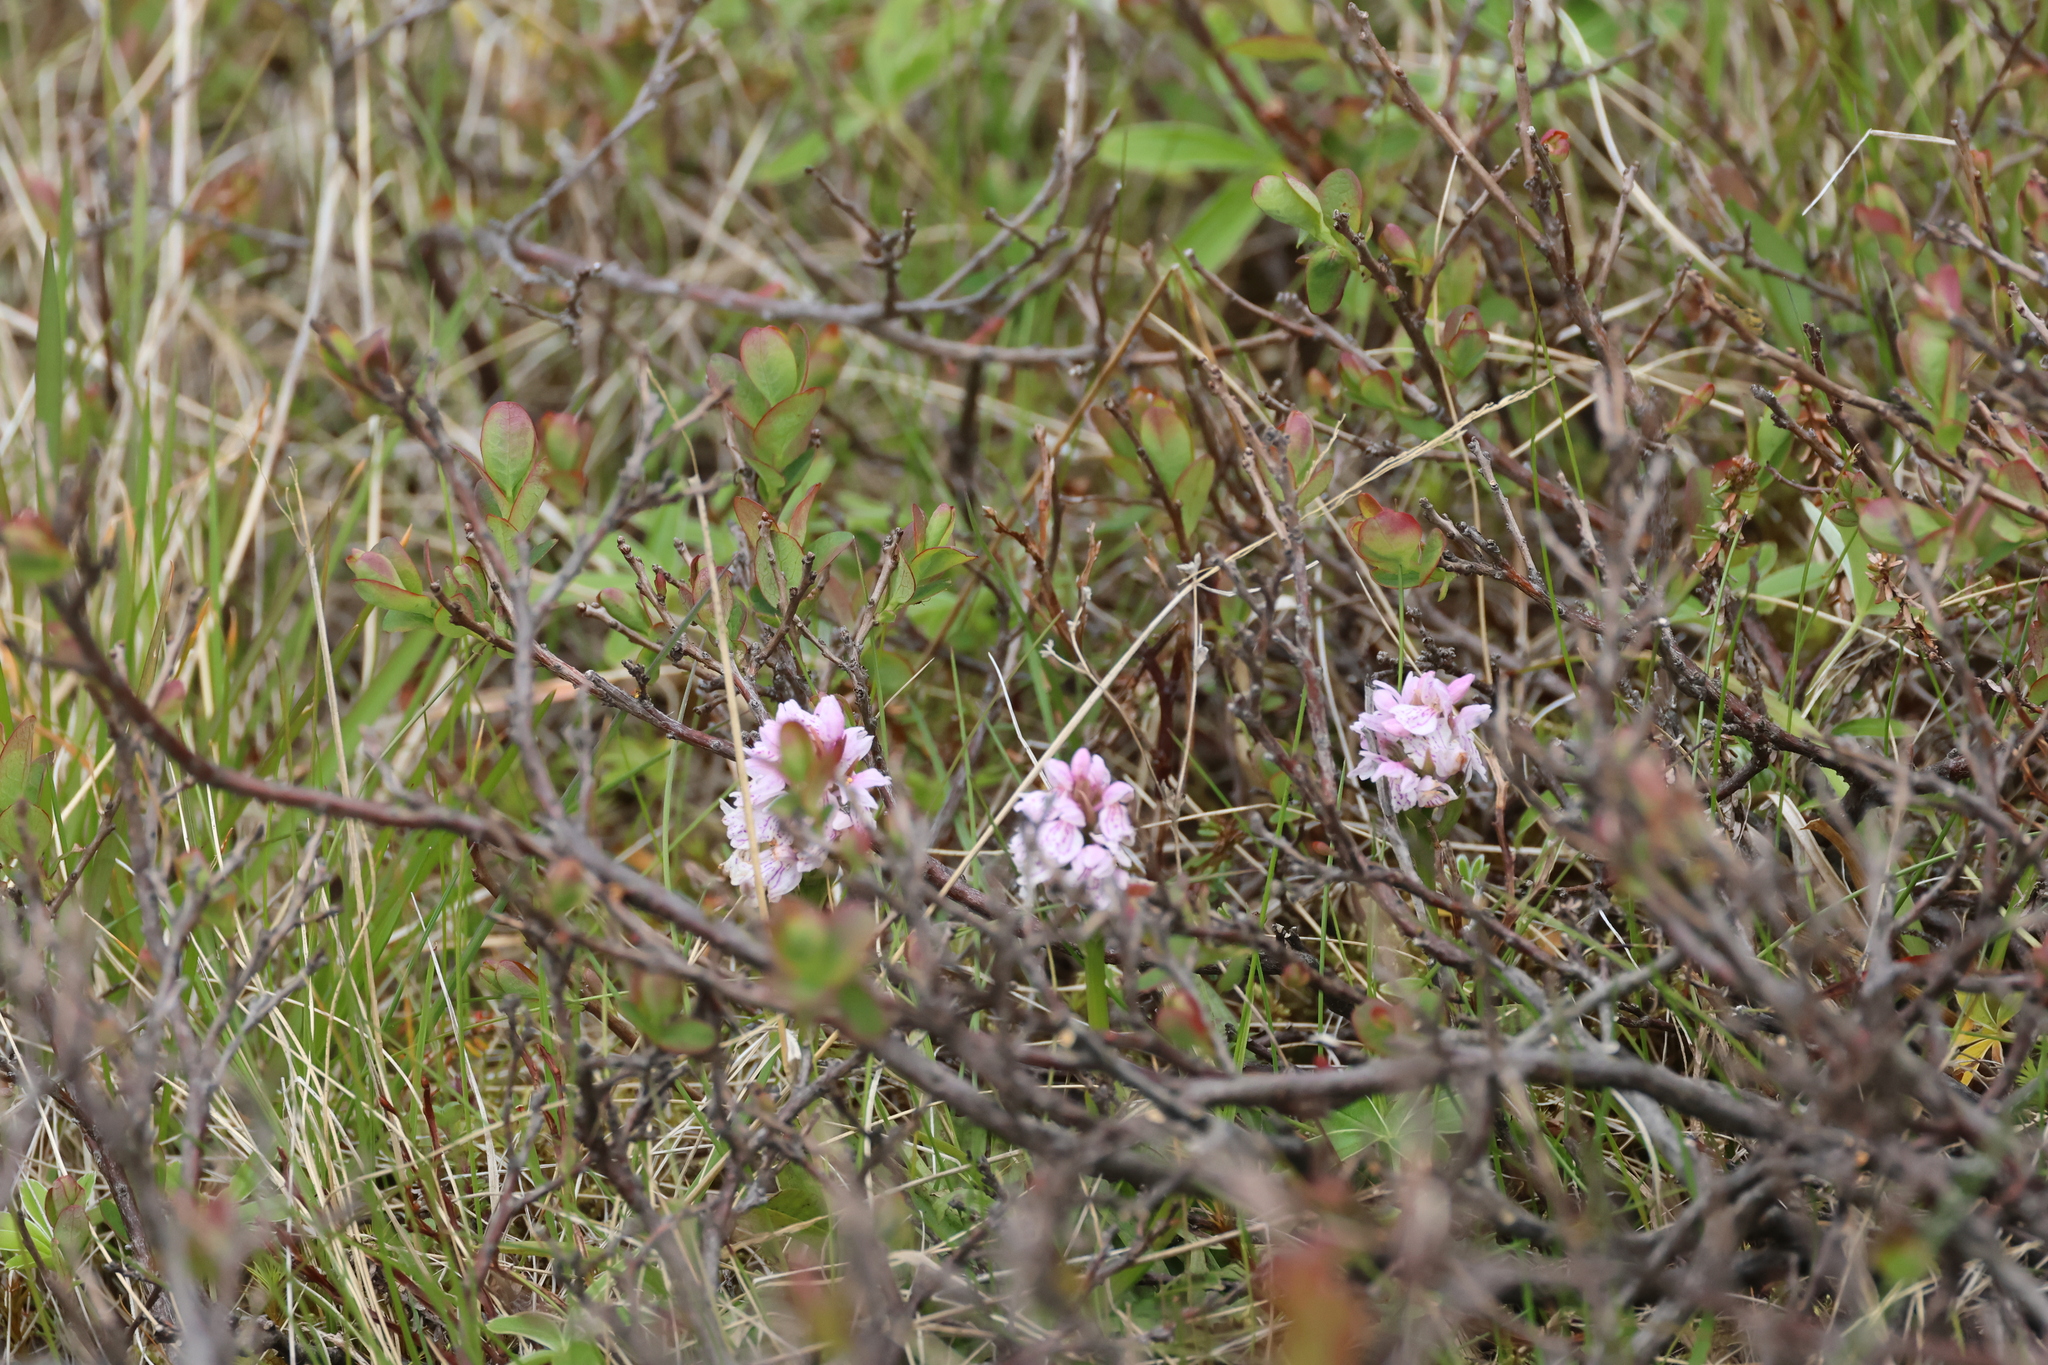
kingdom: Plantae
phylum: Tracheophyta
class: Liliopsida
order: Asparagales
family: Orchidaceae
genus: Dactylorhiza
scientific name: Dactylorhiza maculata
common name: Heath spotted-orchid
